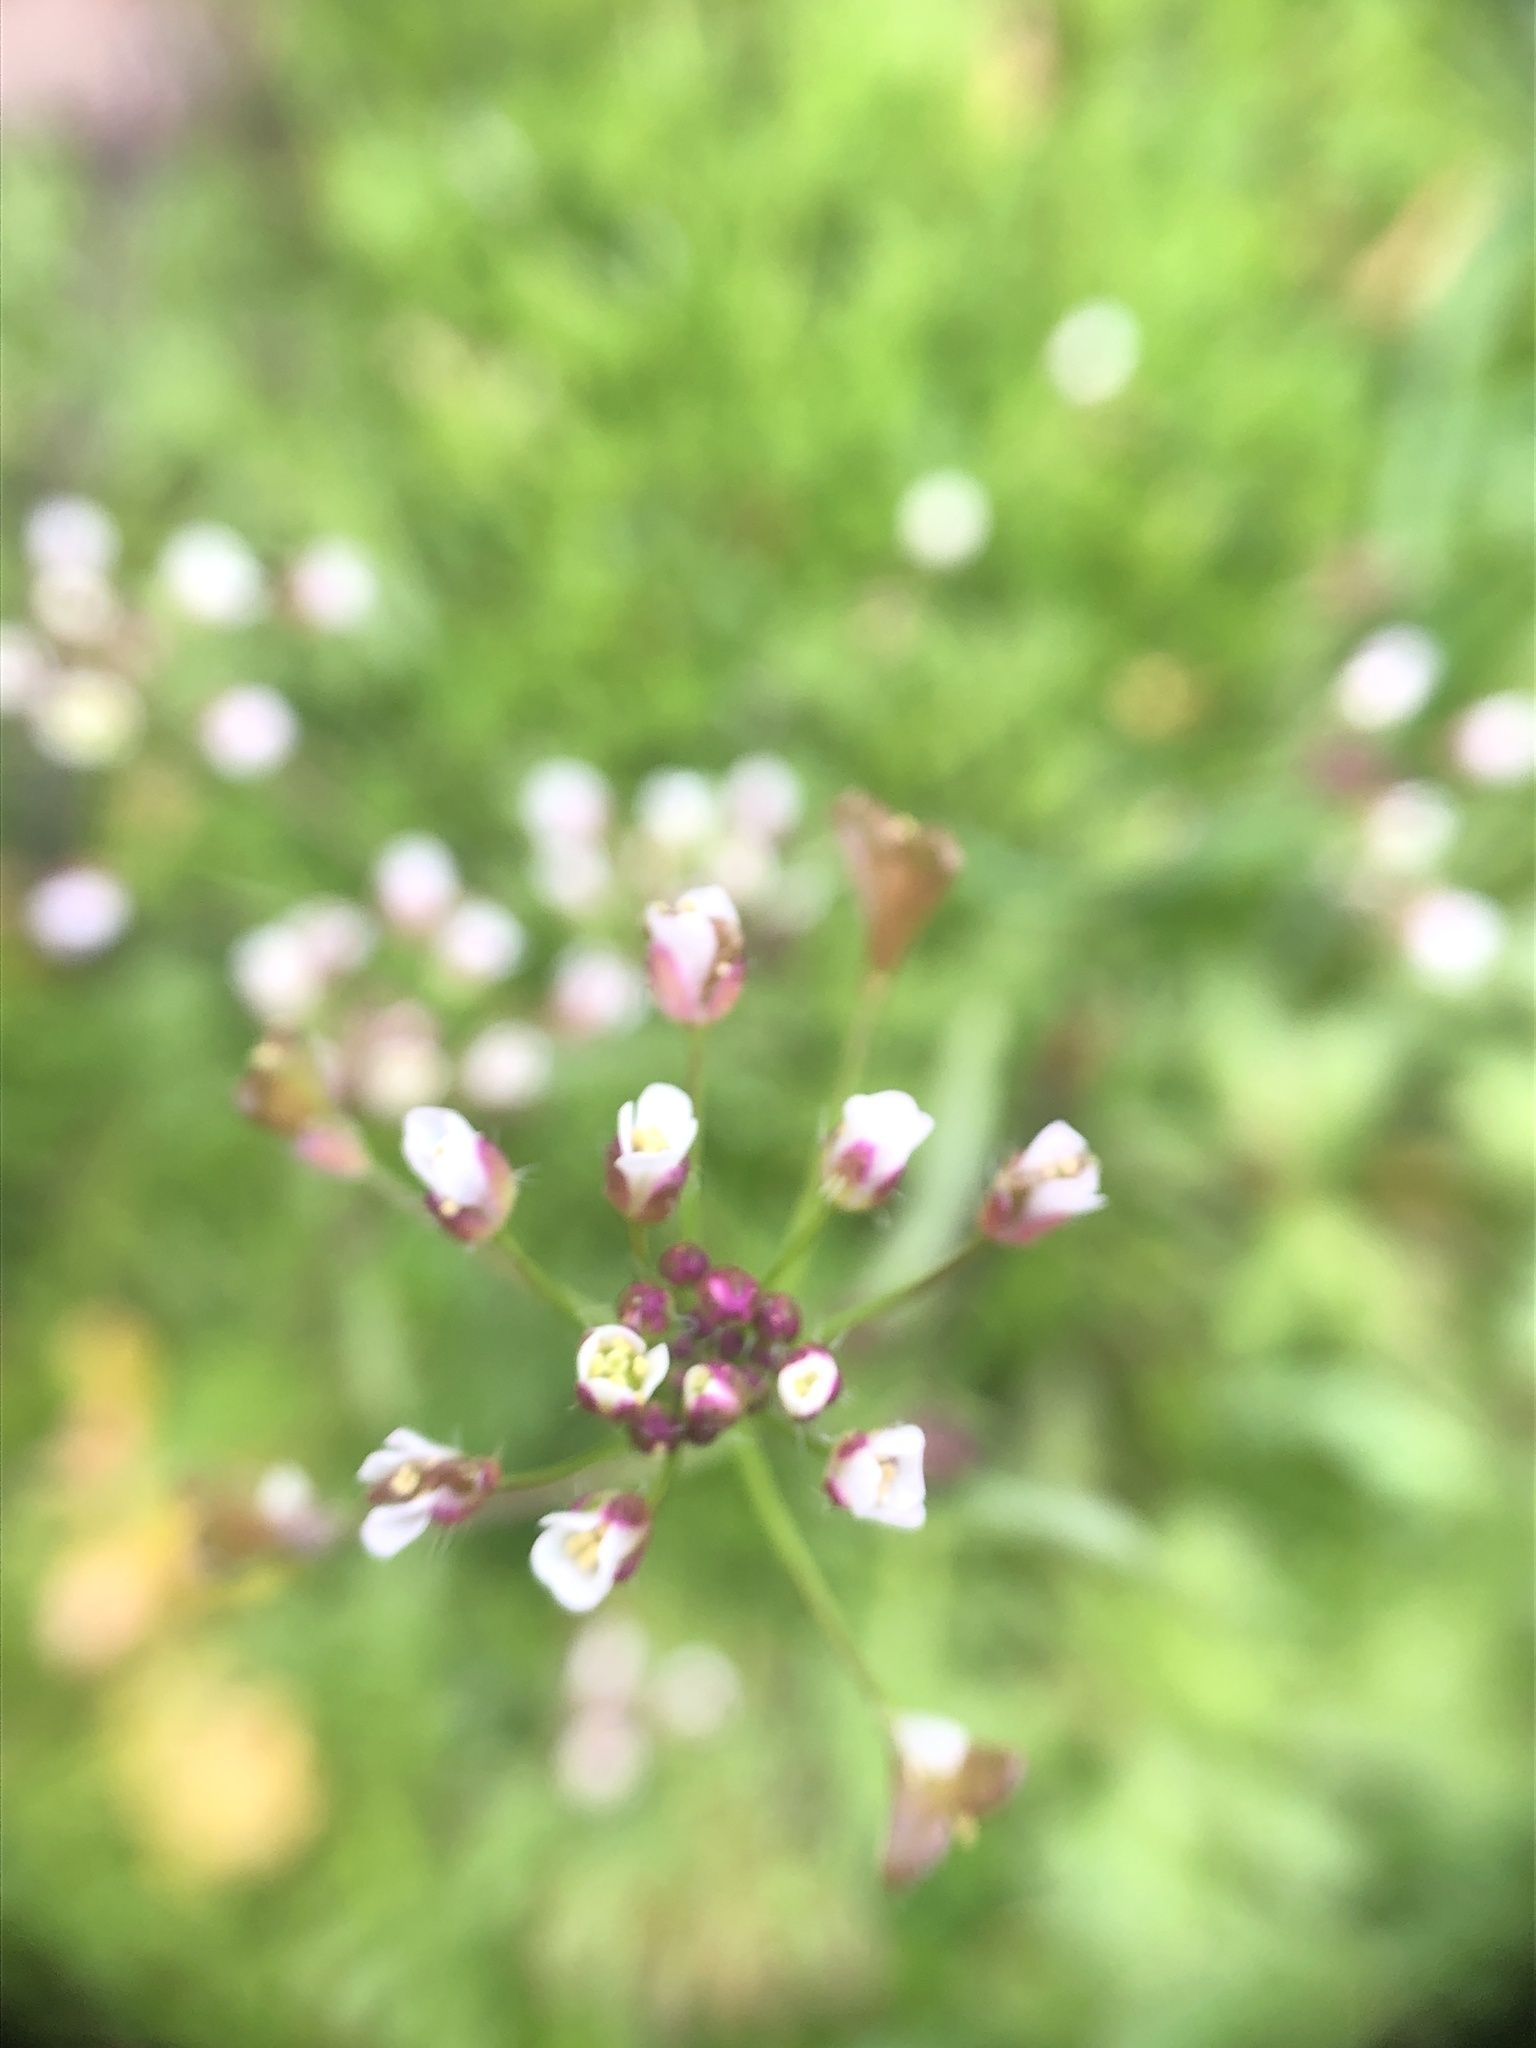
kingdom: Plantae
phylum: Tracheophyta
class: Magnoliopsida
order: Brassicales
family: Brassicaceae
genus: Capsella
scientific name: Capsella bursa-pastoris
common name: Shepherd's purse
